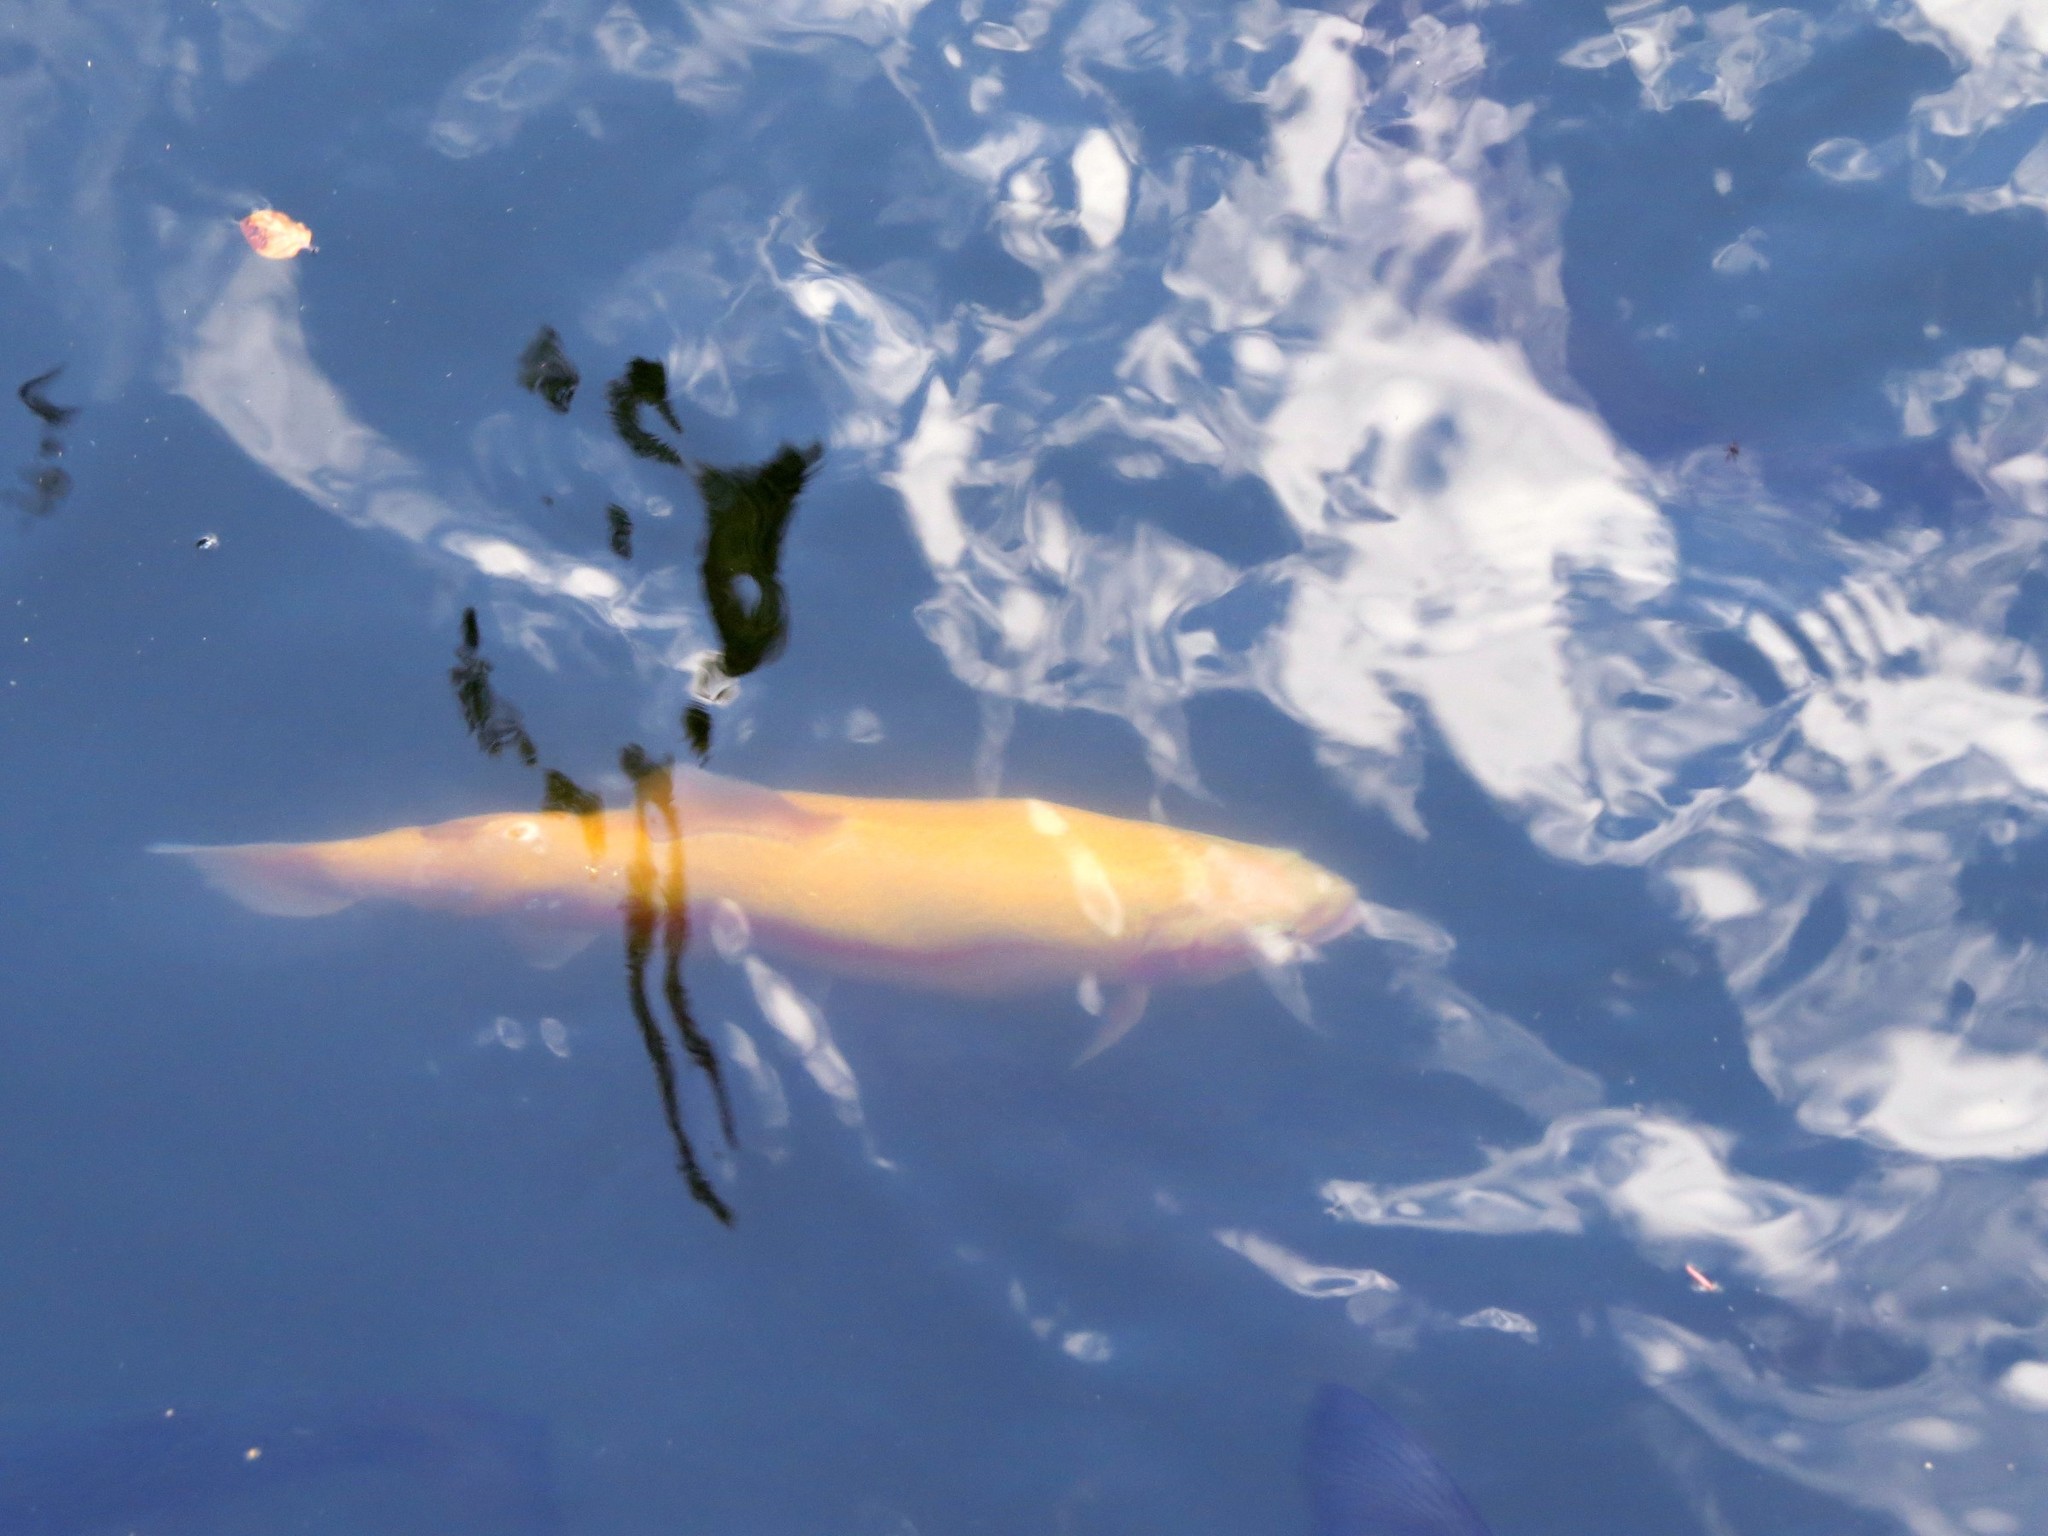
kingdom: Animalia
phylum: Chordata
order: Salmoniformes
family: Salmonidae
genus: Oncorhynchus
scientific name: Oncorhynchus mykiss
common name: Rainbow trout
